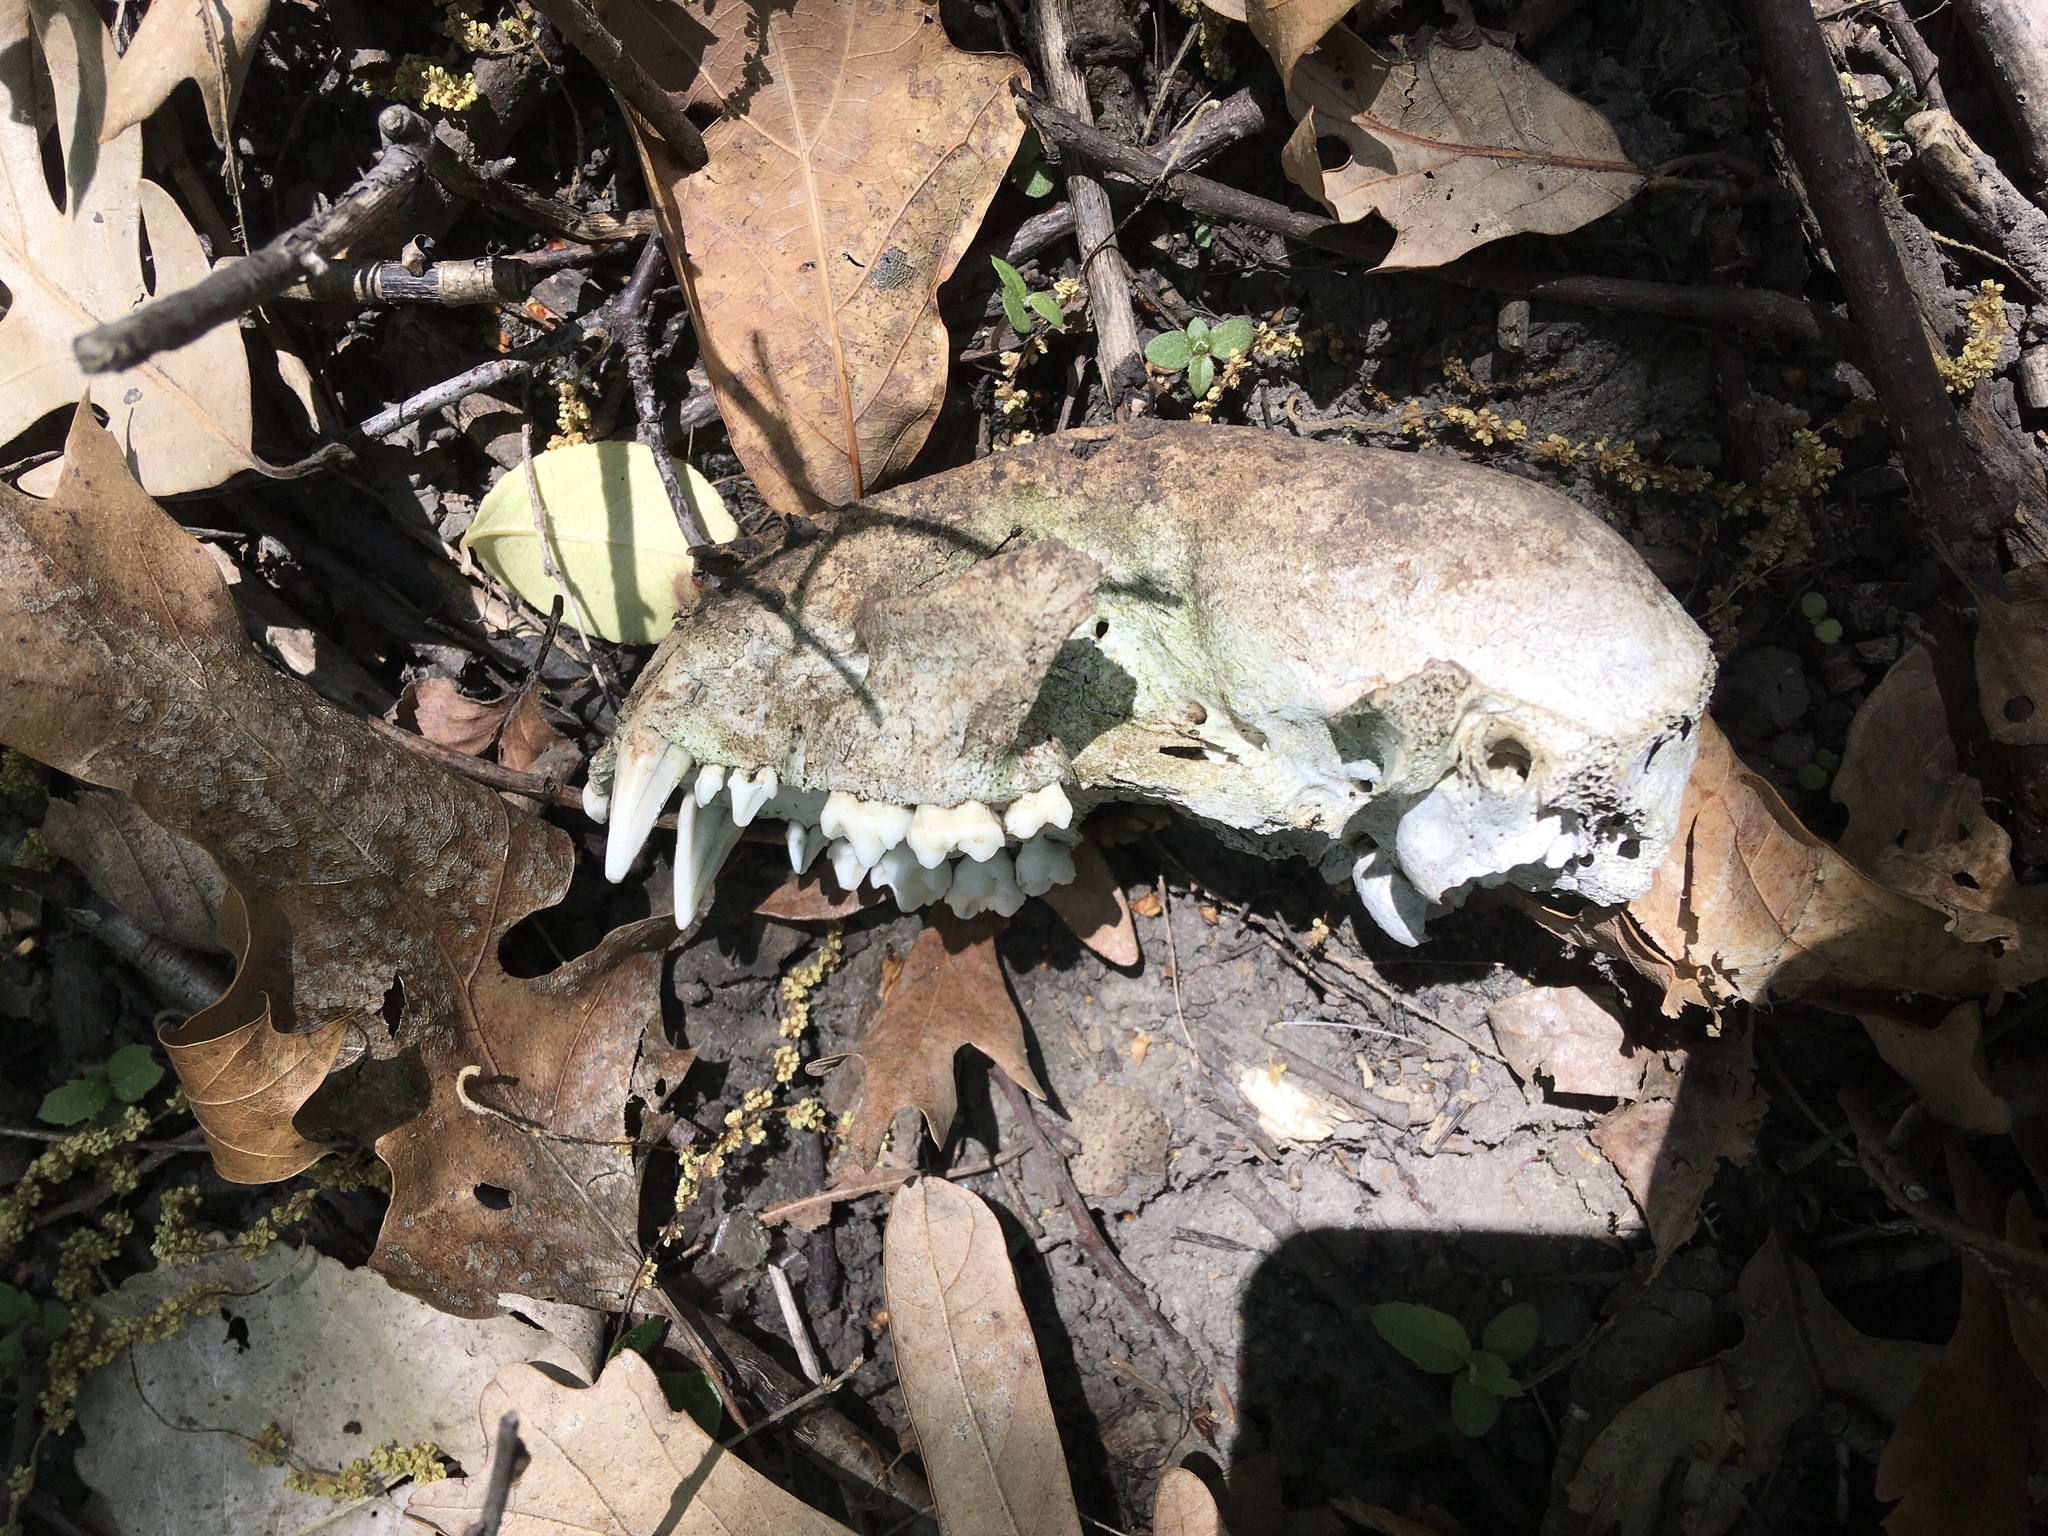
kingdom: Animalia
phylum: Chordata
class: Mammalia
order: Carnivora
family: Procyonidae
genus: Procyon
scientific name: Procyon lotor
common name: Raccoon
